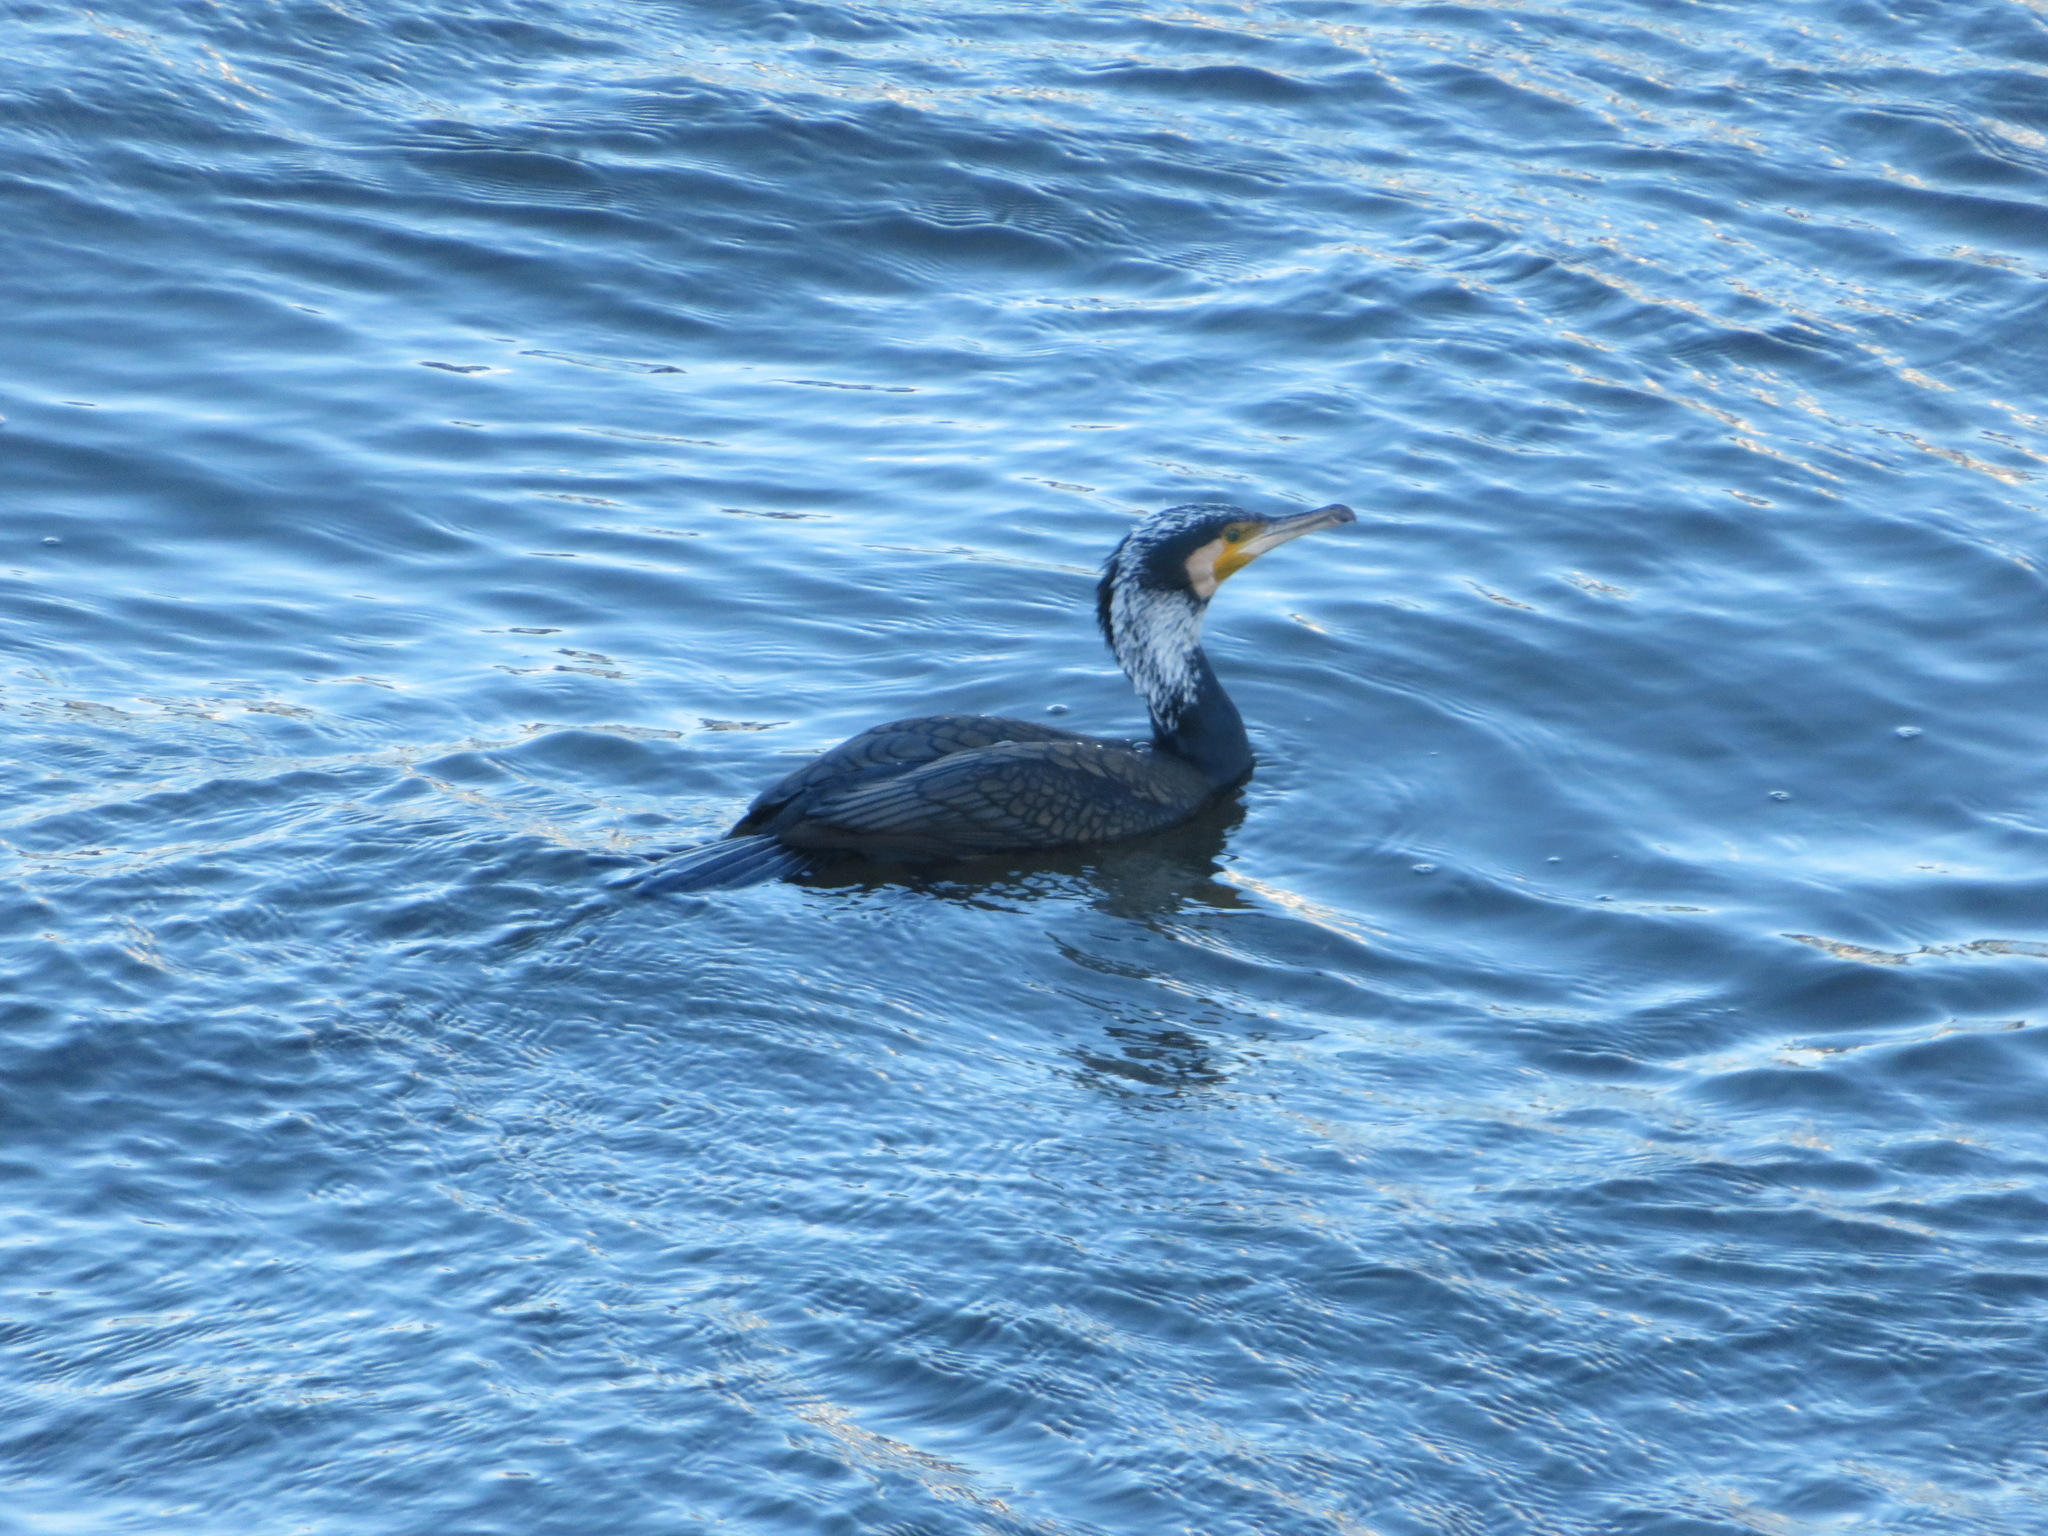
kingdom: Animalia
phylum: Chordata
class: Aves
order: Suliformes
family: Phalacrocoracidae
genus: Phalacrocorax
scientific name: Phalacrocorax carbo
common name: Great cormorant
